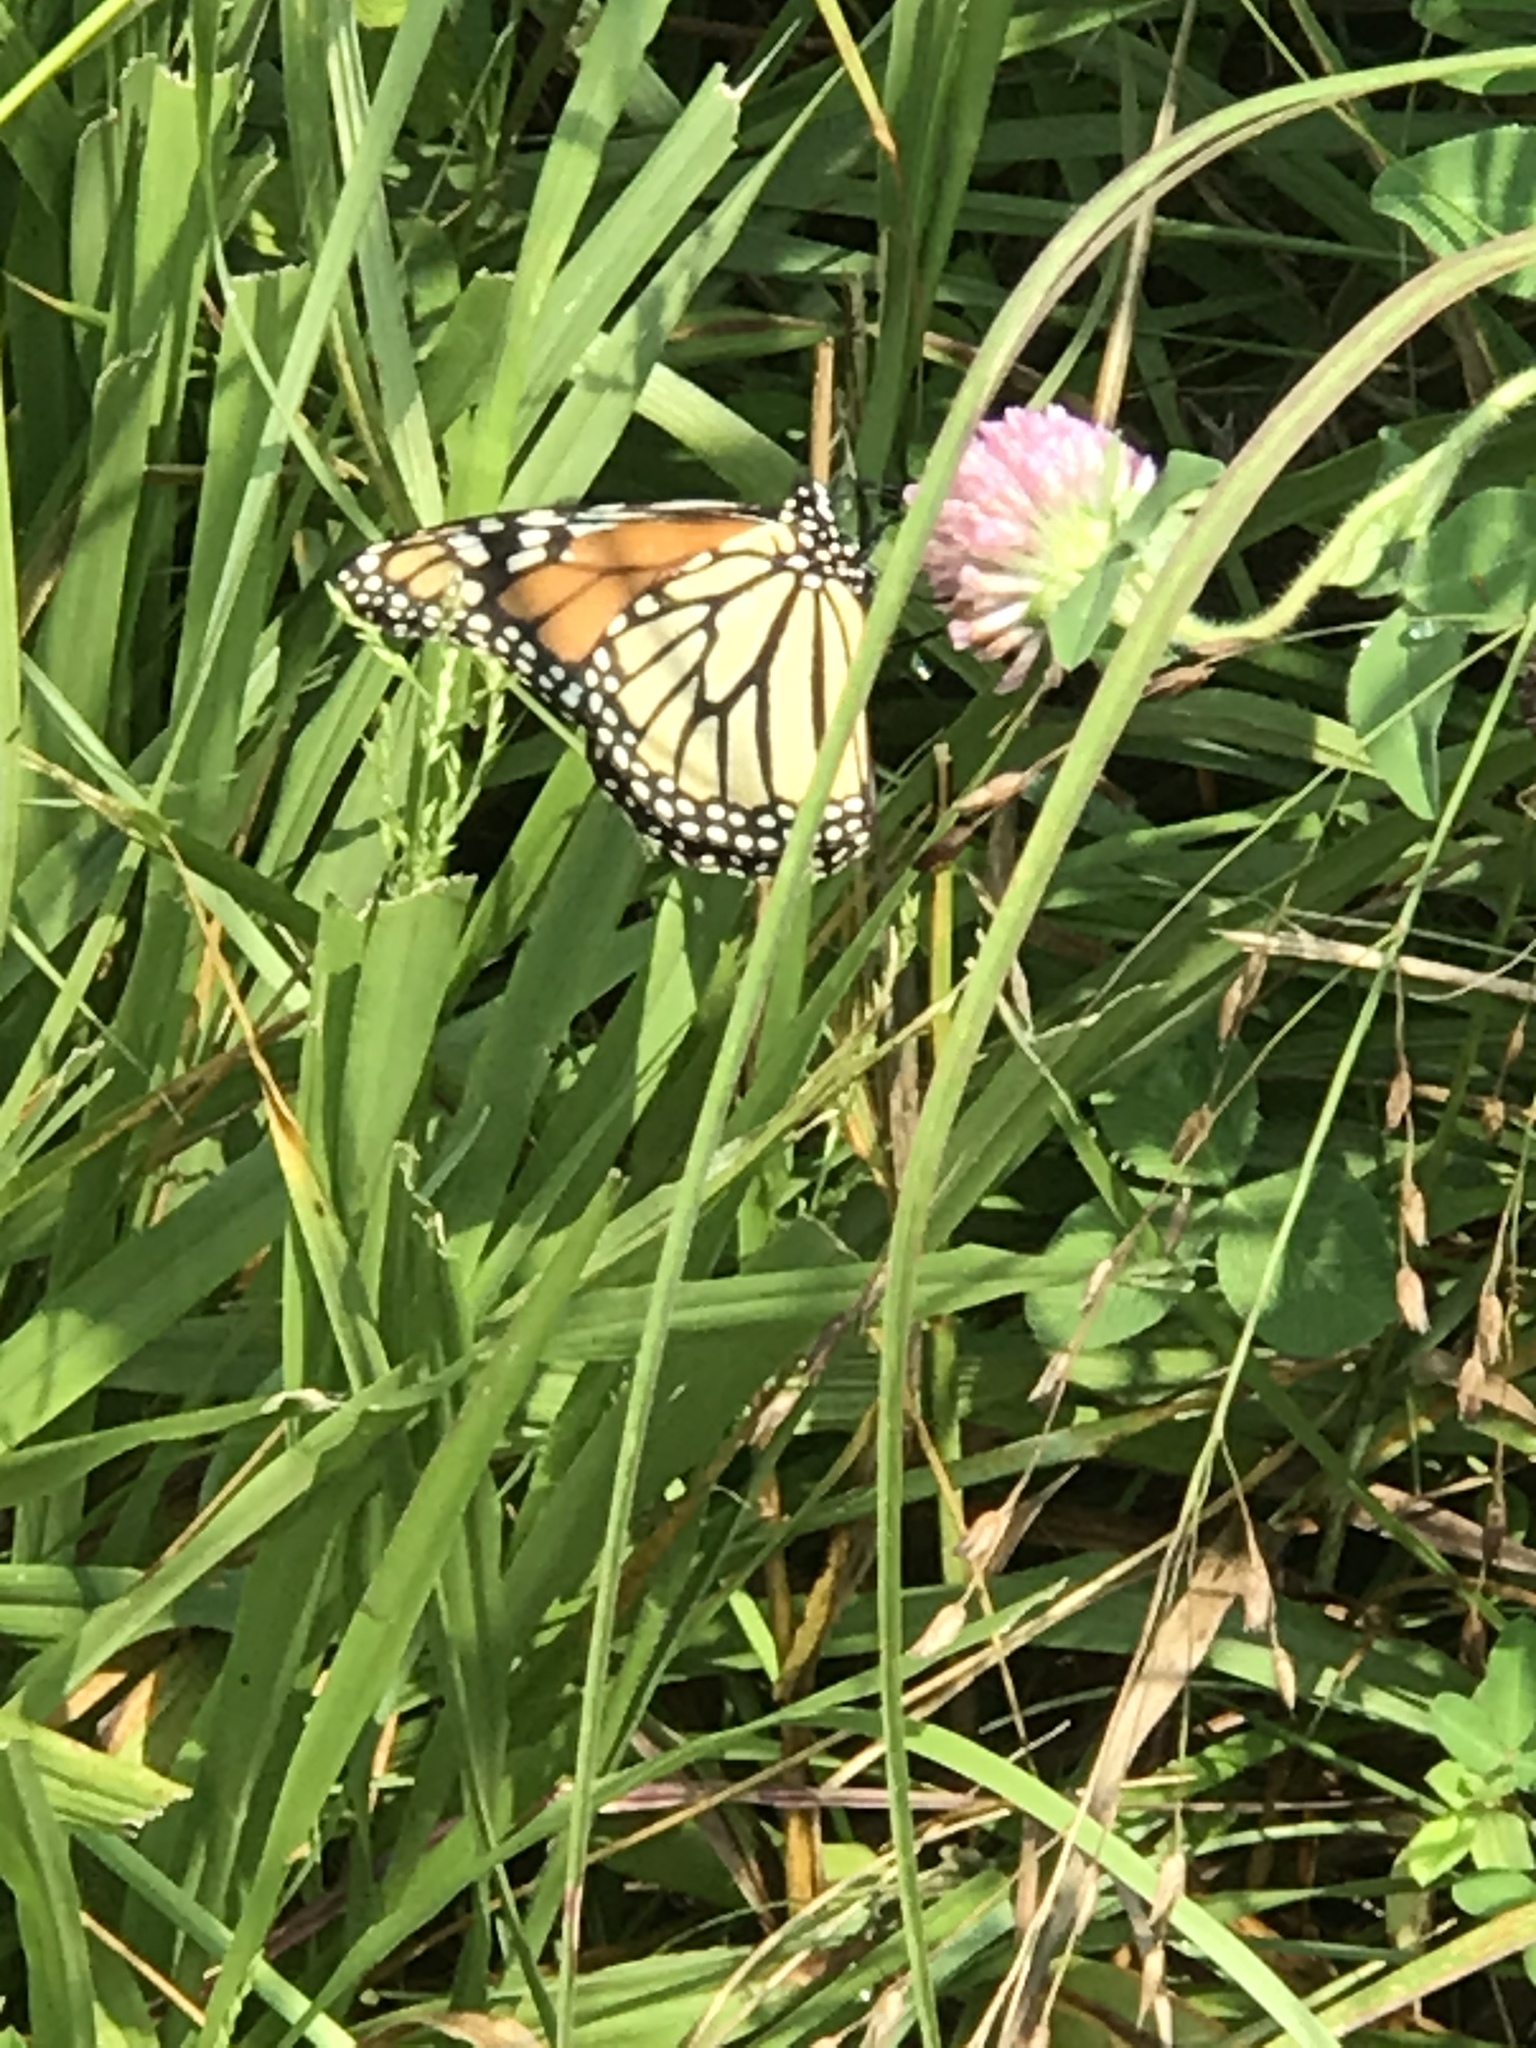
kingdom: Animalia
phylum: Arthropoda
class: Insecta
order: Lepidoptera
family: Nymphalidae
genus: Danaus
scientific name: Danaus plexippus
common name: Monarch
